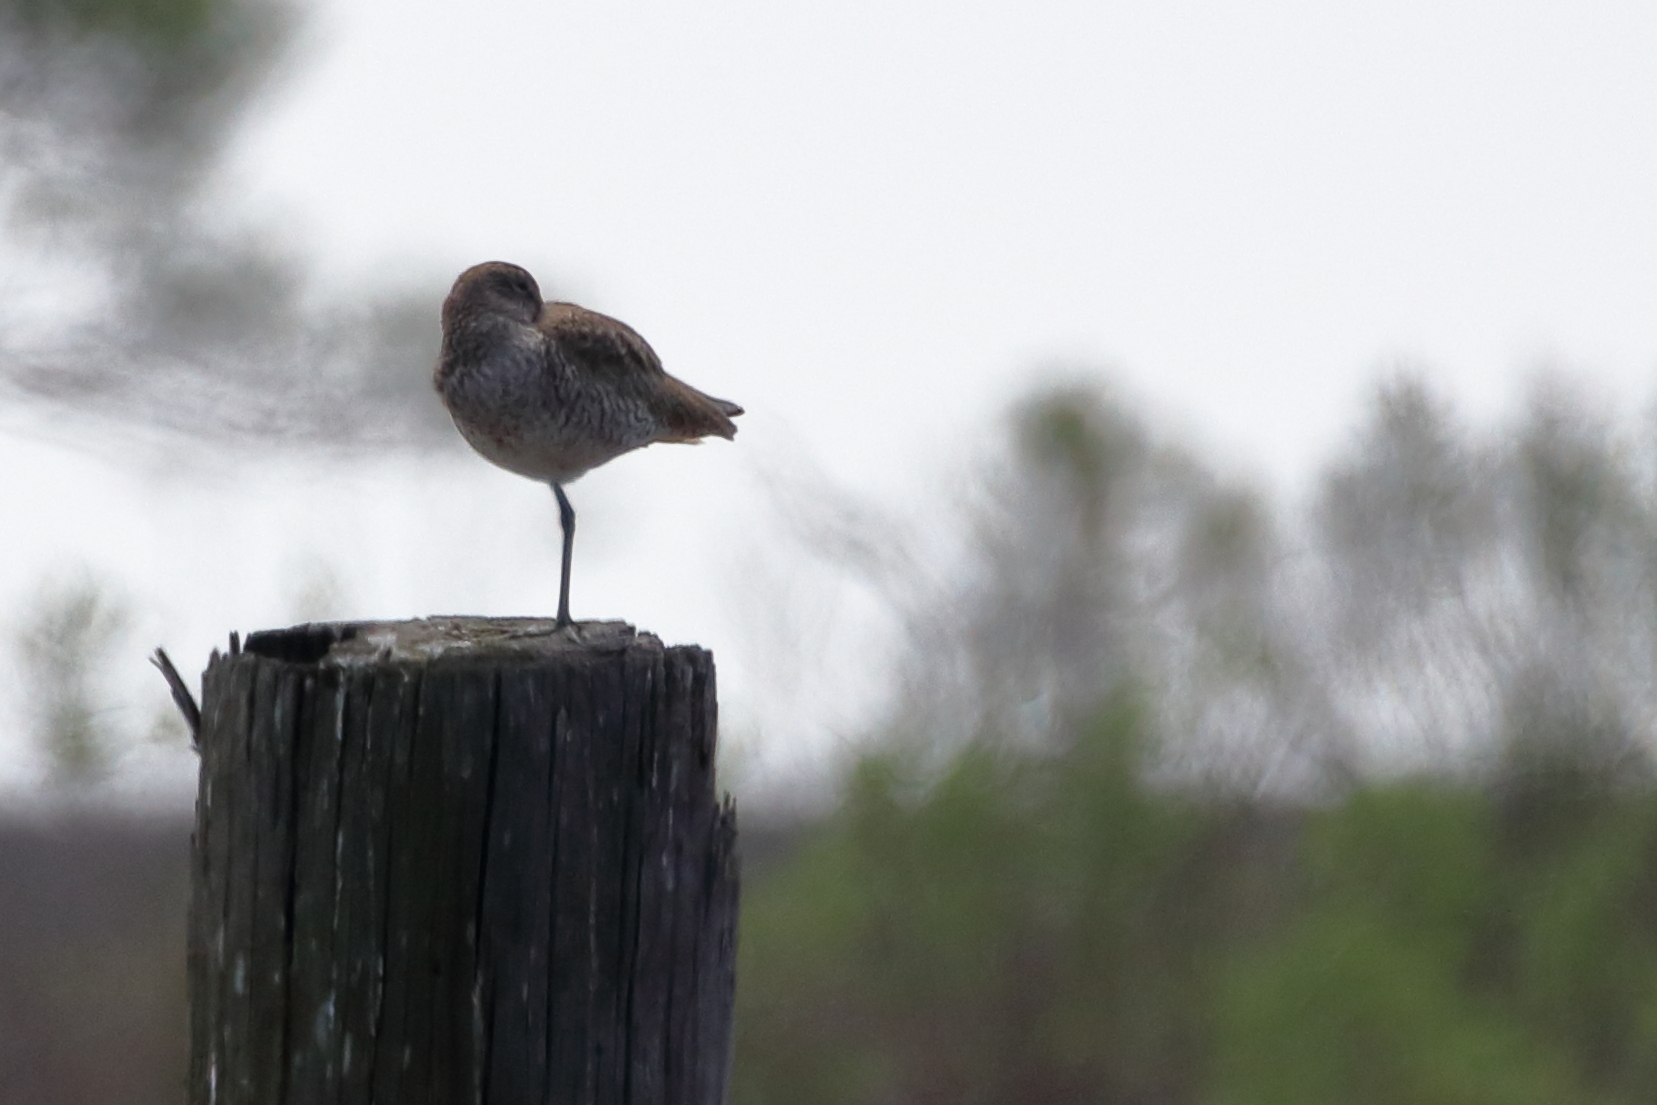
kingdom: Animalia
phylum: Chordata
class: Aves
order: Charadriiformes
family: Scolopacidae
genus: Tringa
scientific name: Tringa semipalmata
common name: Willet
